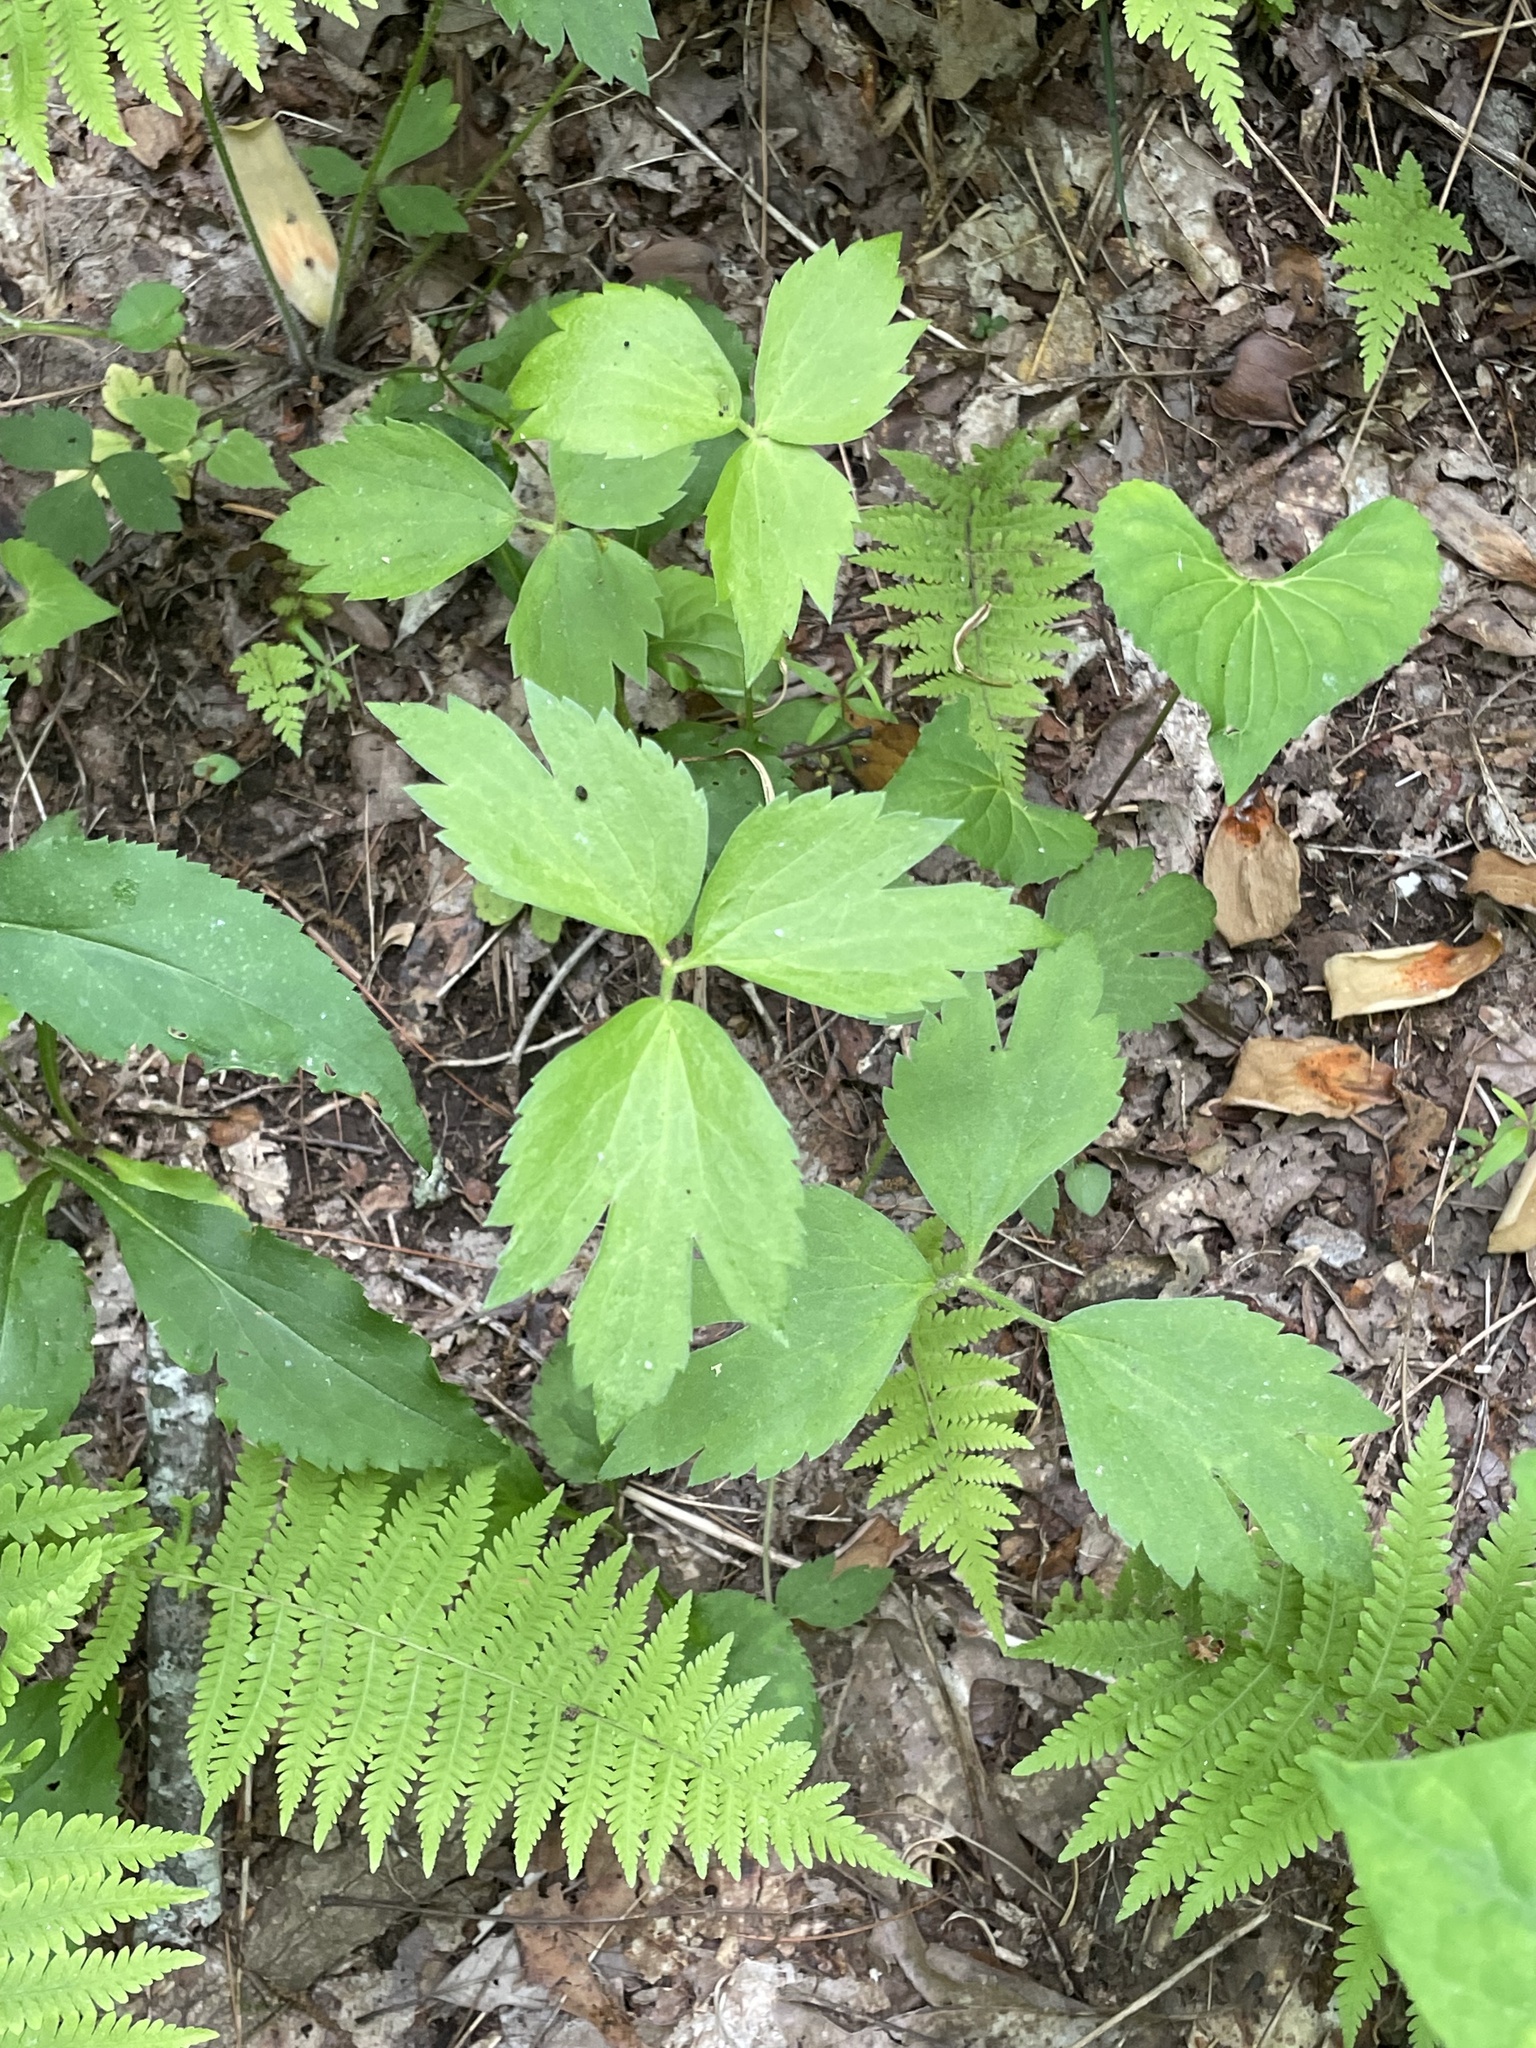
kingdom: Plantae
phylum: Tracheophyta
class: Magnoliopsida
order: Apiales
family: Apiaceae
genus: Cryptotaenia
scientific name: Cryptotaenia canadensis
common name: Honewort
